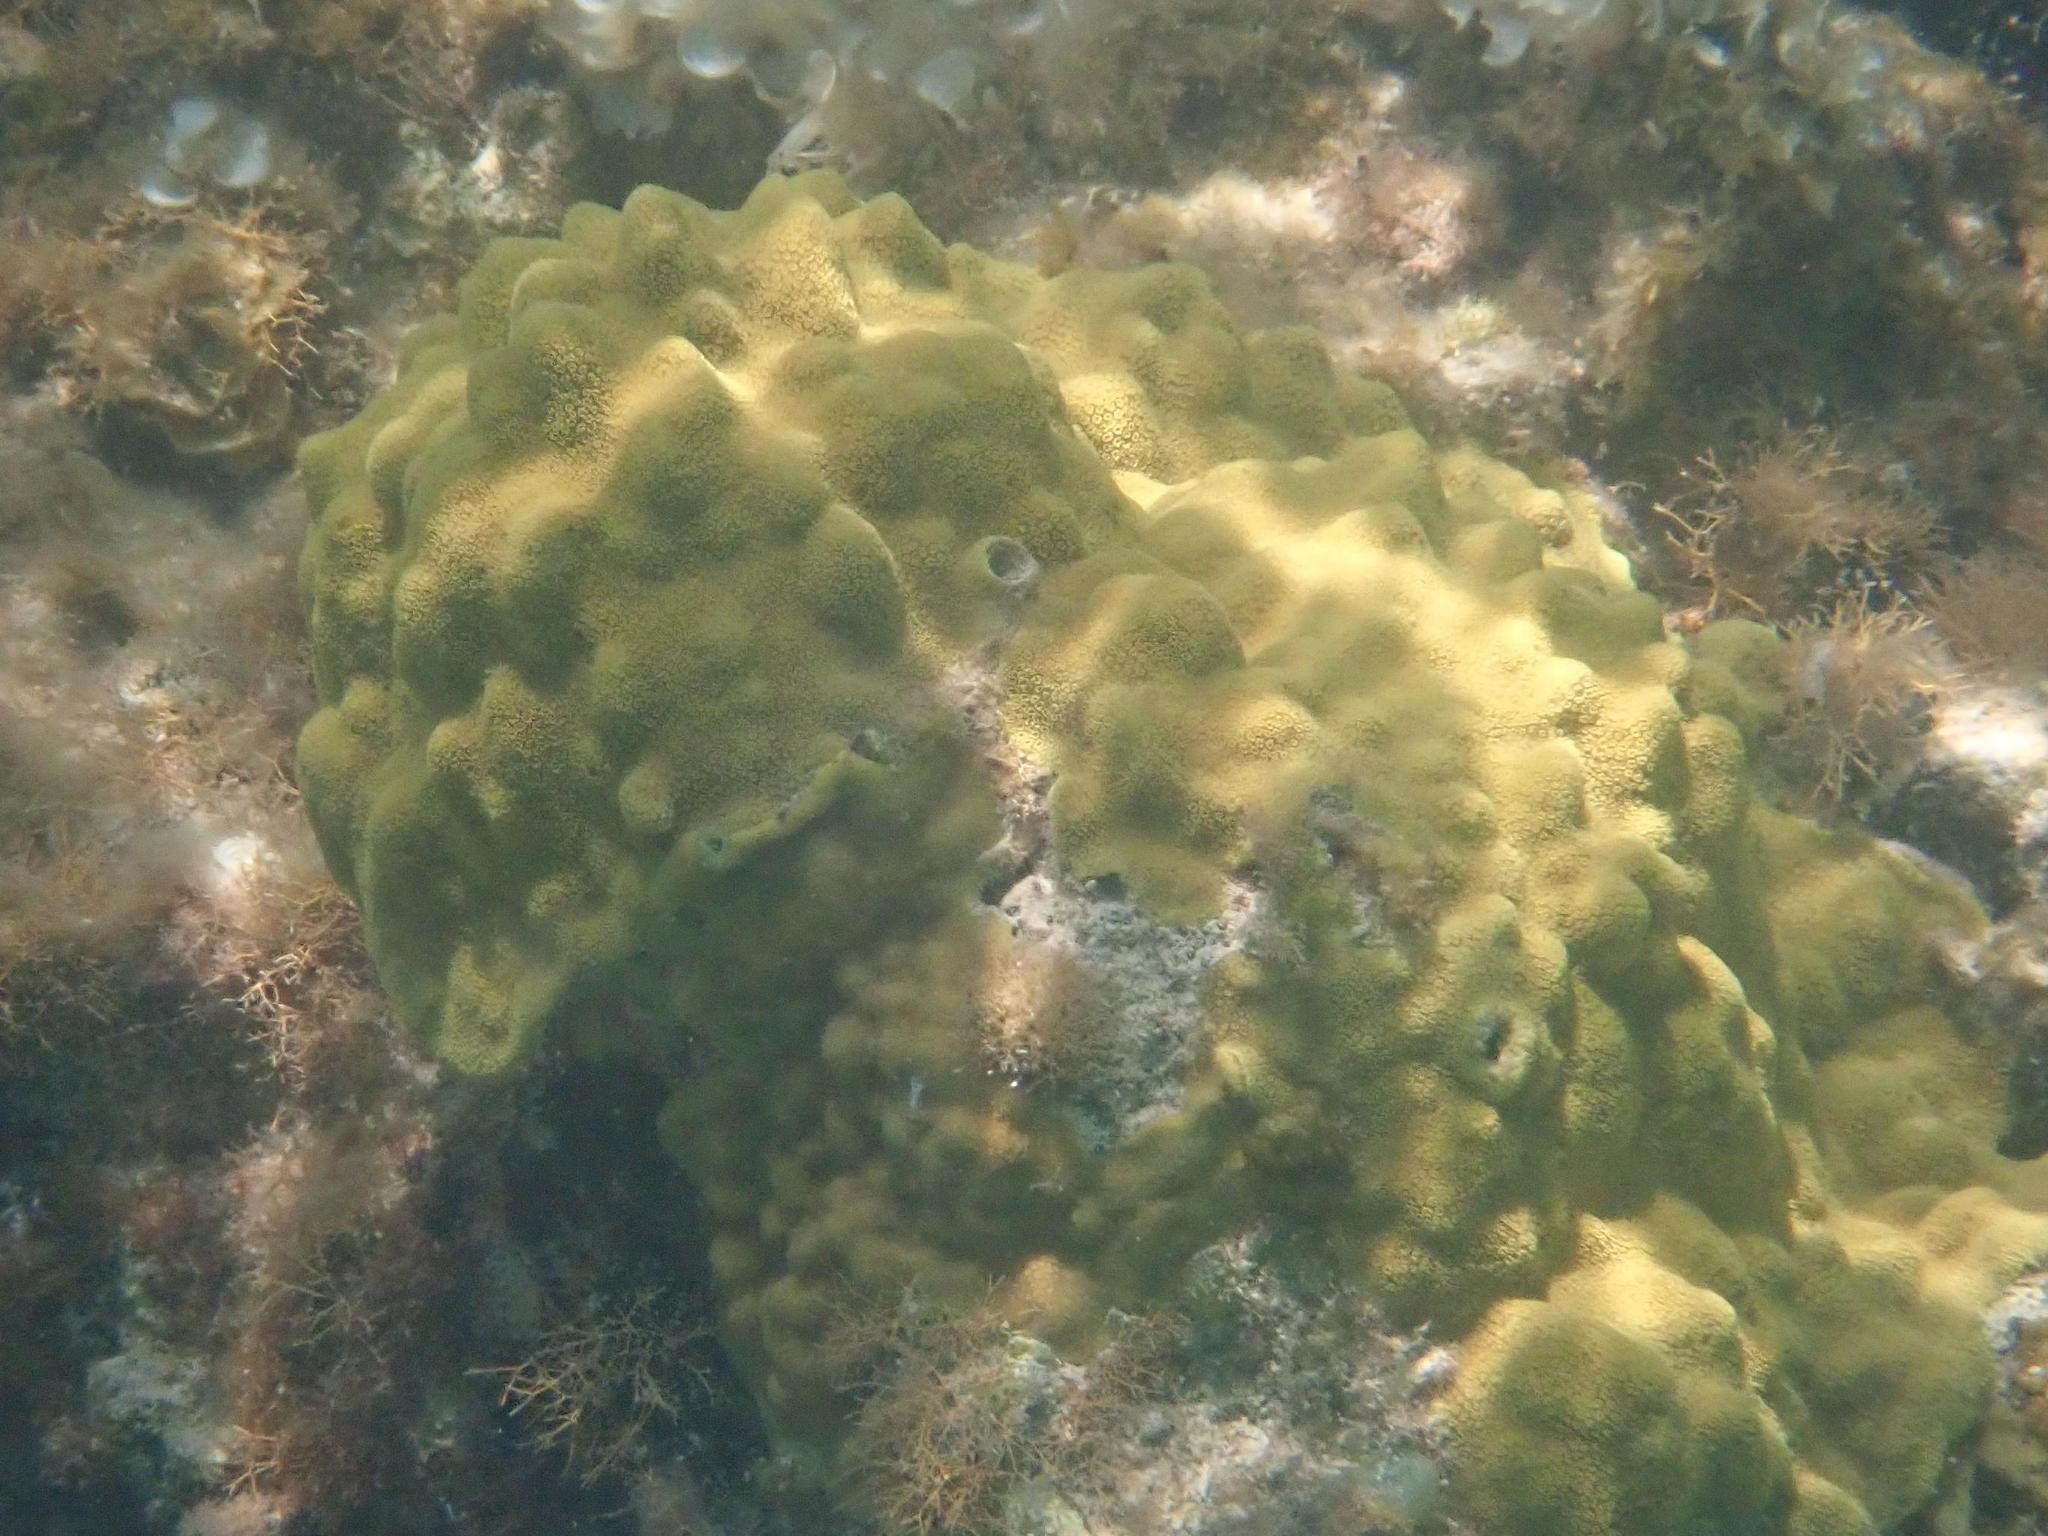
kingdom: Animalia
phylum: Cnidaria
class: Anthozoa
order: Scleractinia
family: Poritidae
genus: Porites
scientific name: Porites astreoides
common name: Mustard hill coral
